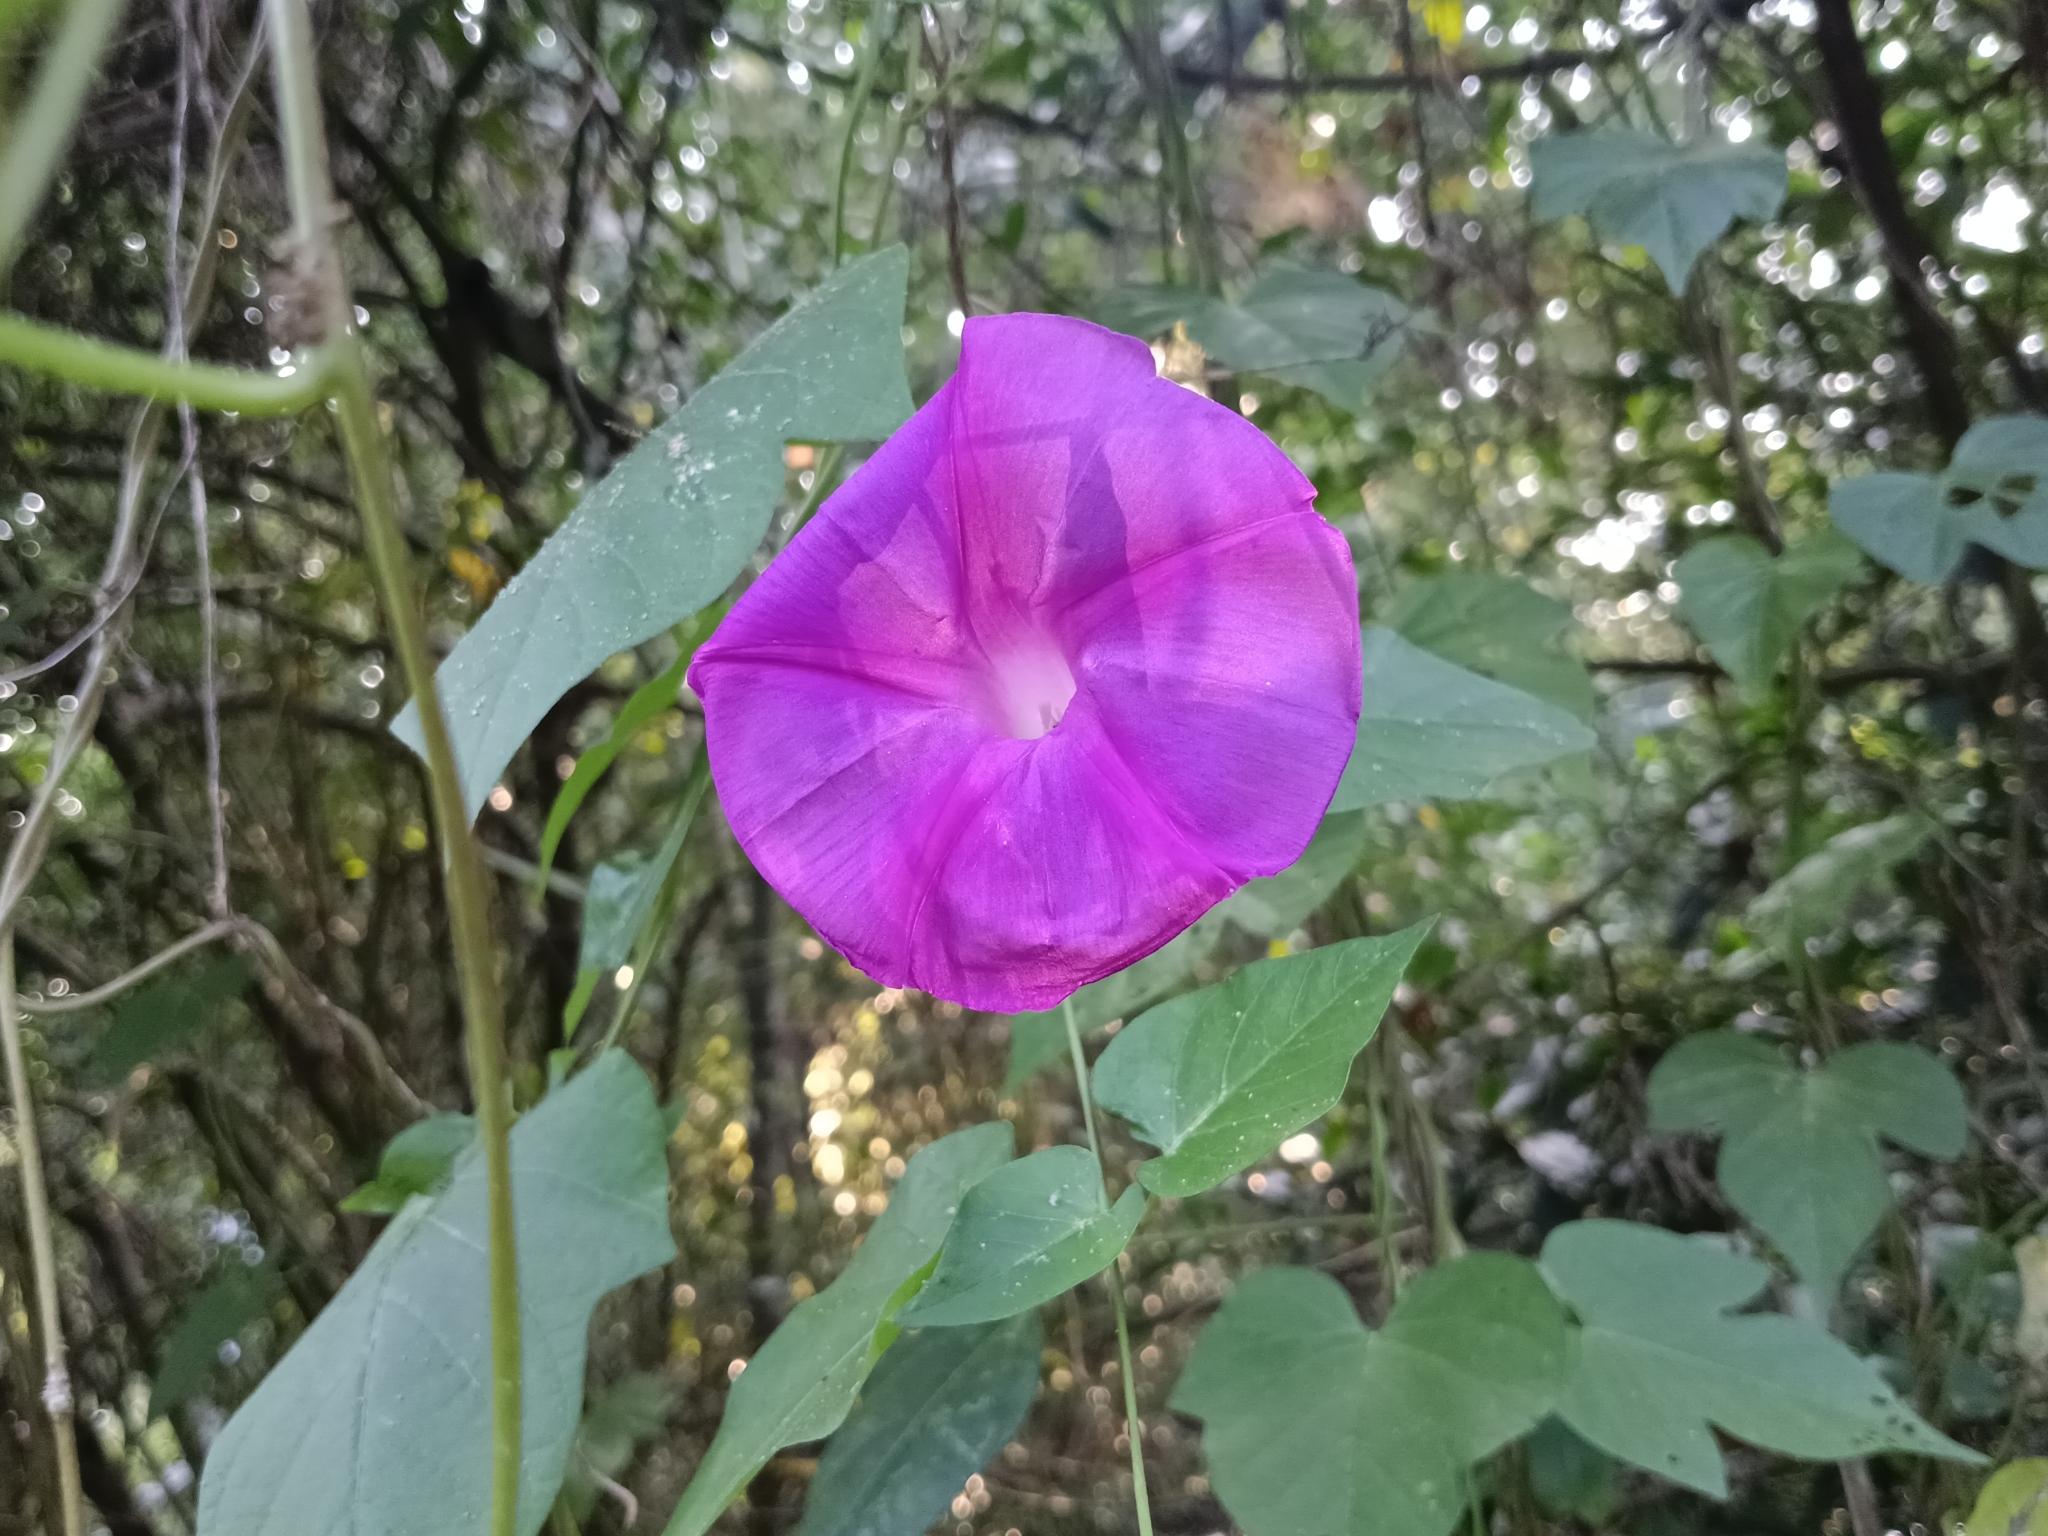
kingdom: Plantae
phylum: Tracheophyta
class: Magnoliopsida
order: Solanales
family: Convolvulaceae
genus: Ipomoea
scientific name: Ipomoea indica
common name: Blue dawnflower
